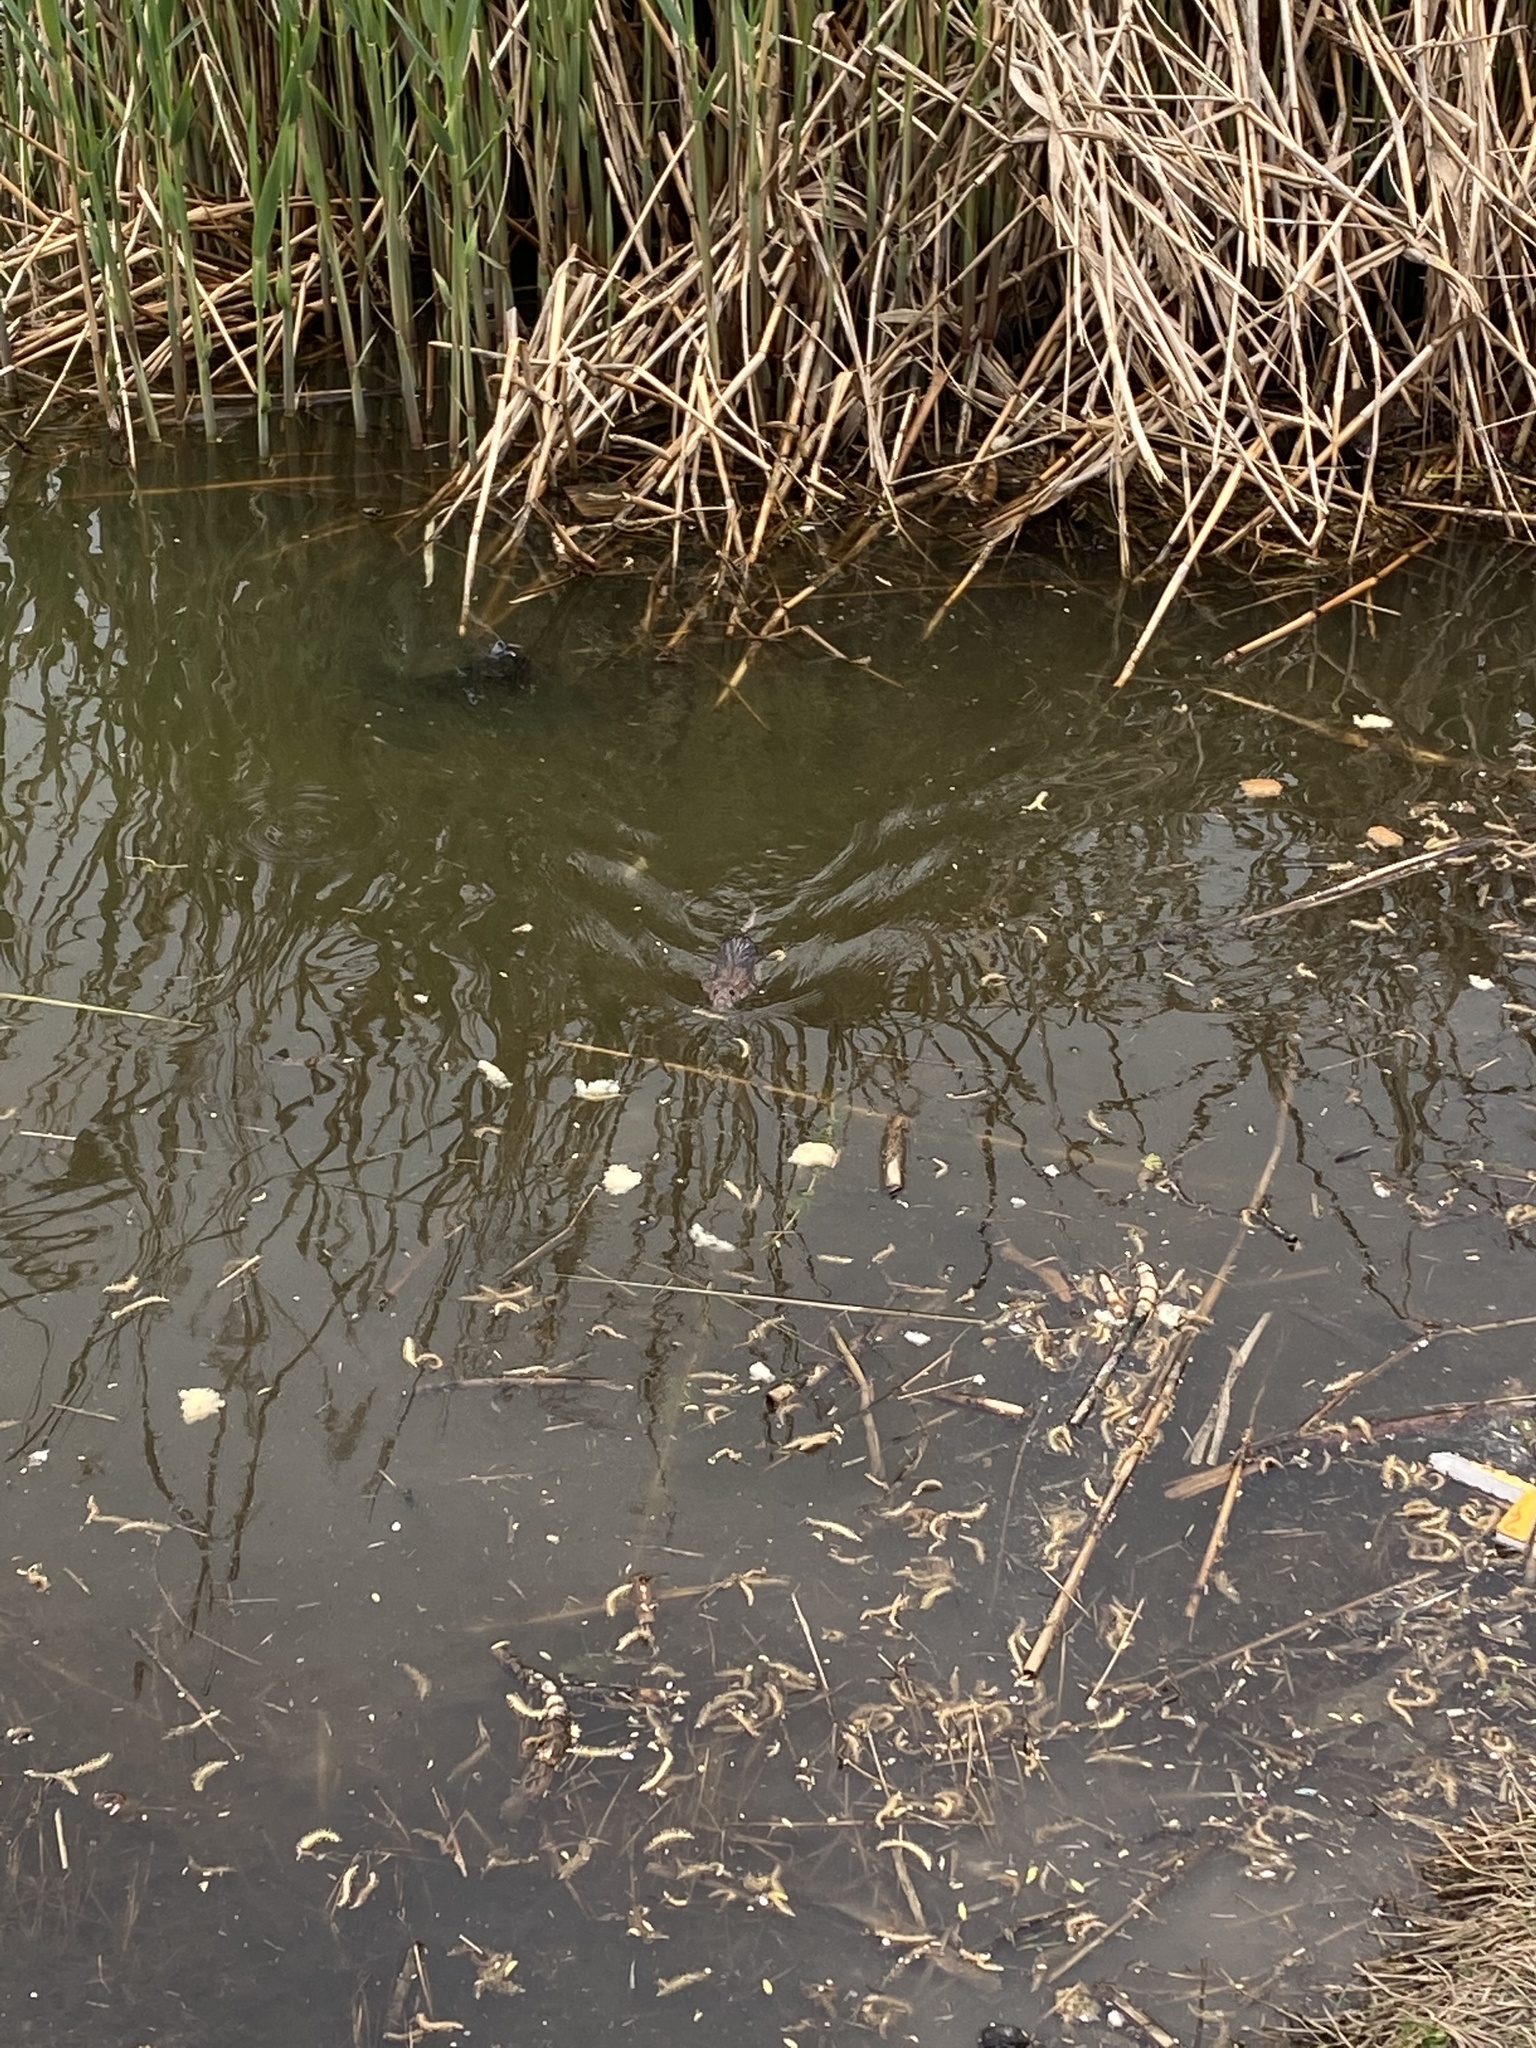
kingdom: Animalia
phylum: Chordata
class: Mammalia
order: Rodentia
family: Muridae
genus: Rattus
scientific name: Rattus norvegicus
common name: Brown rat
